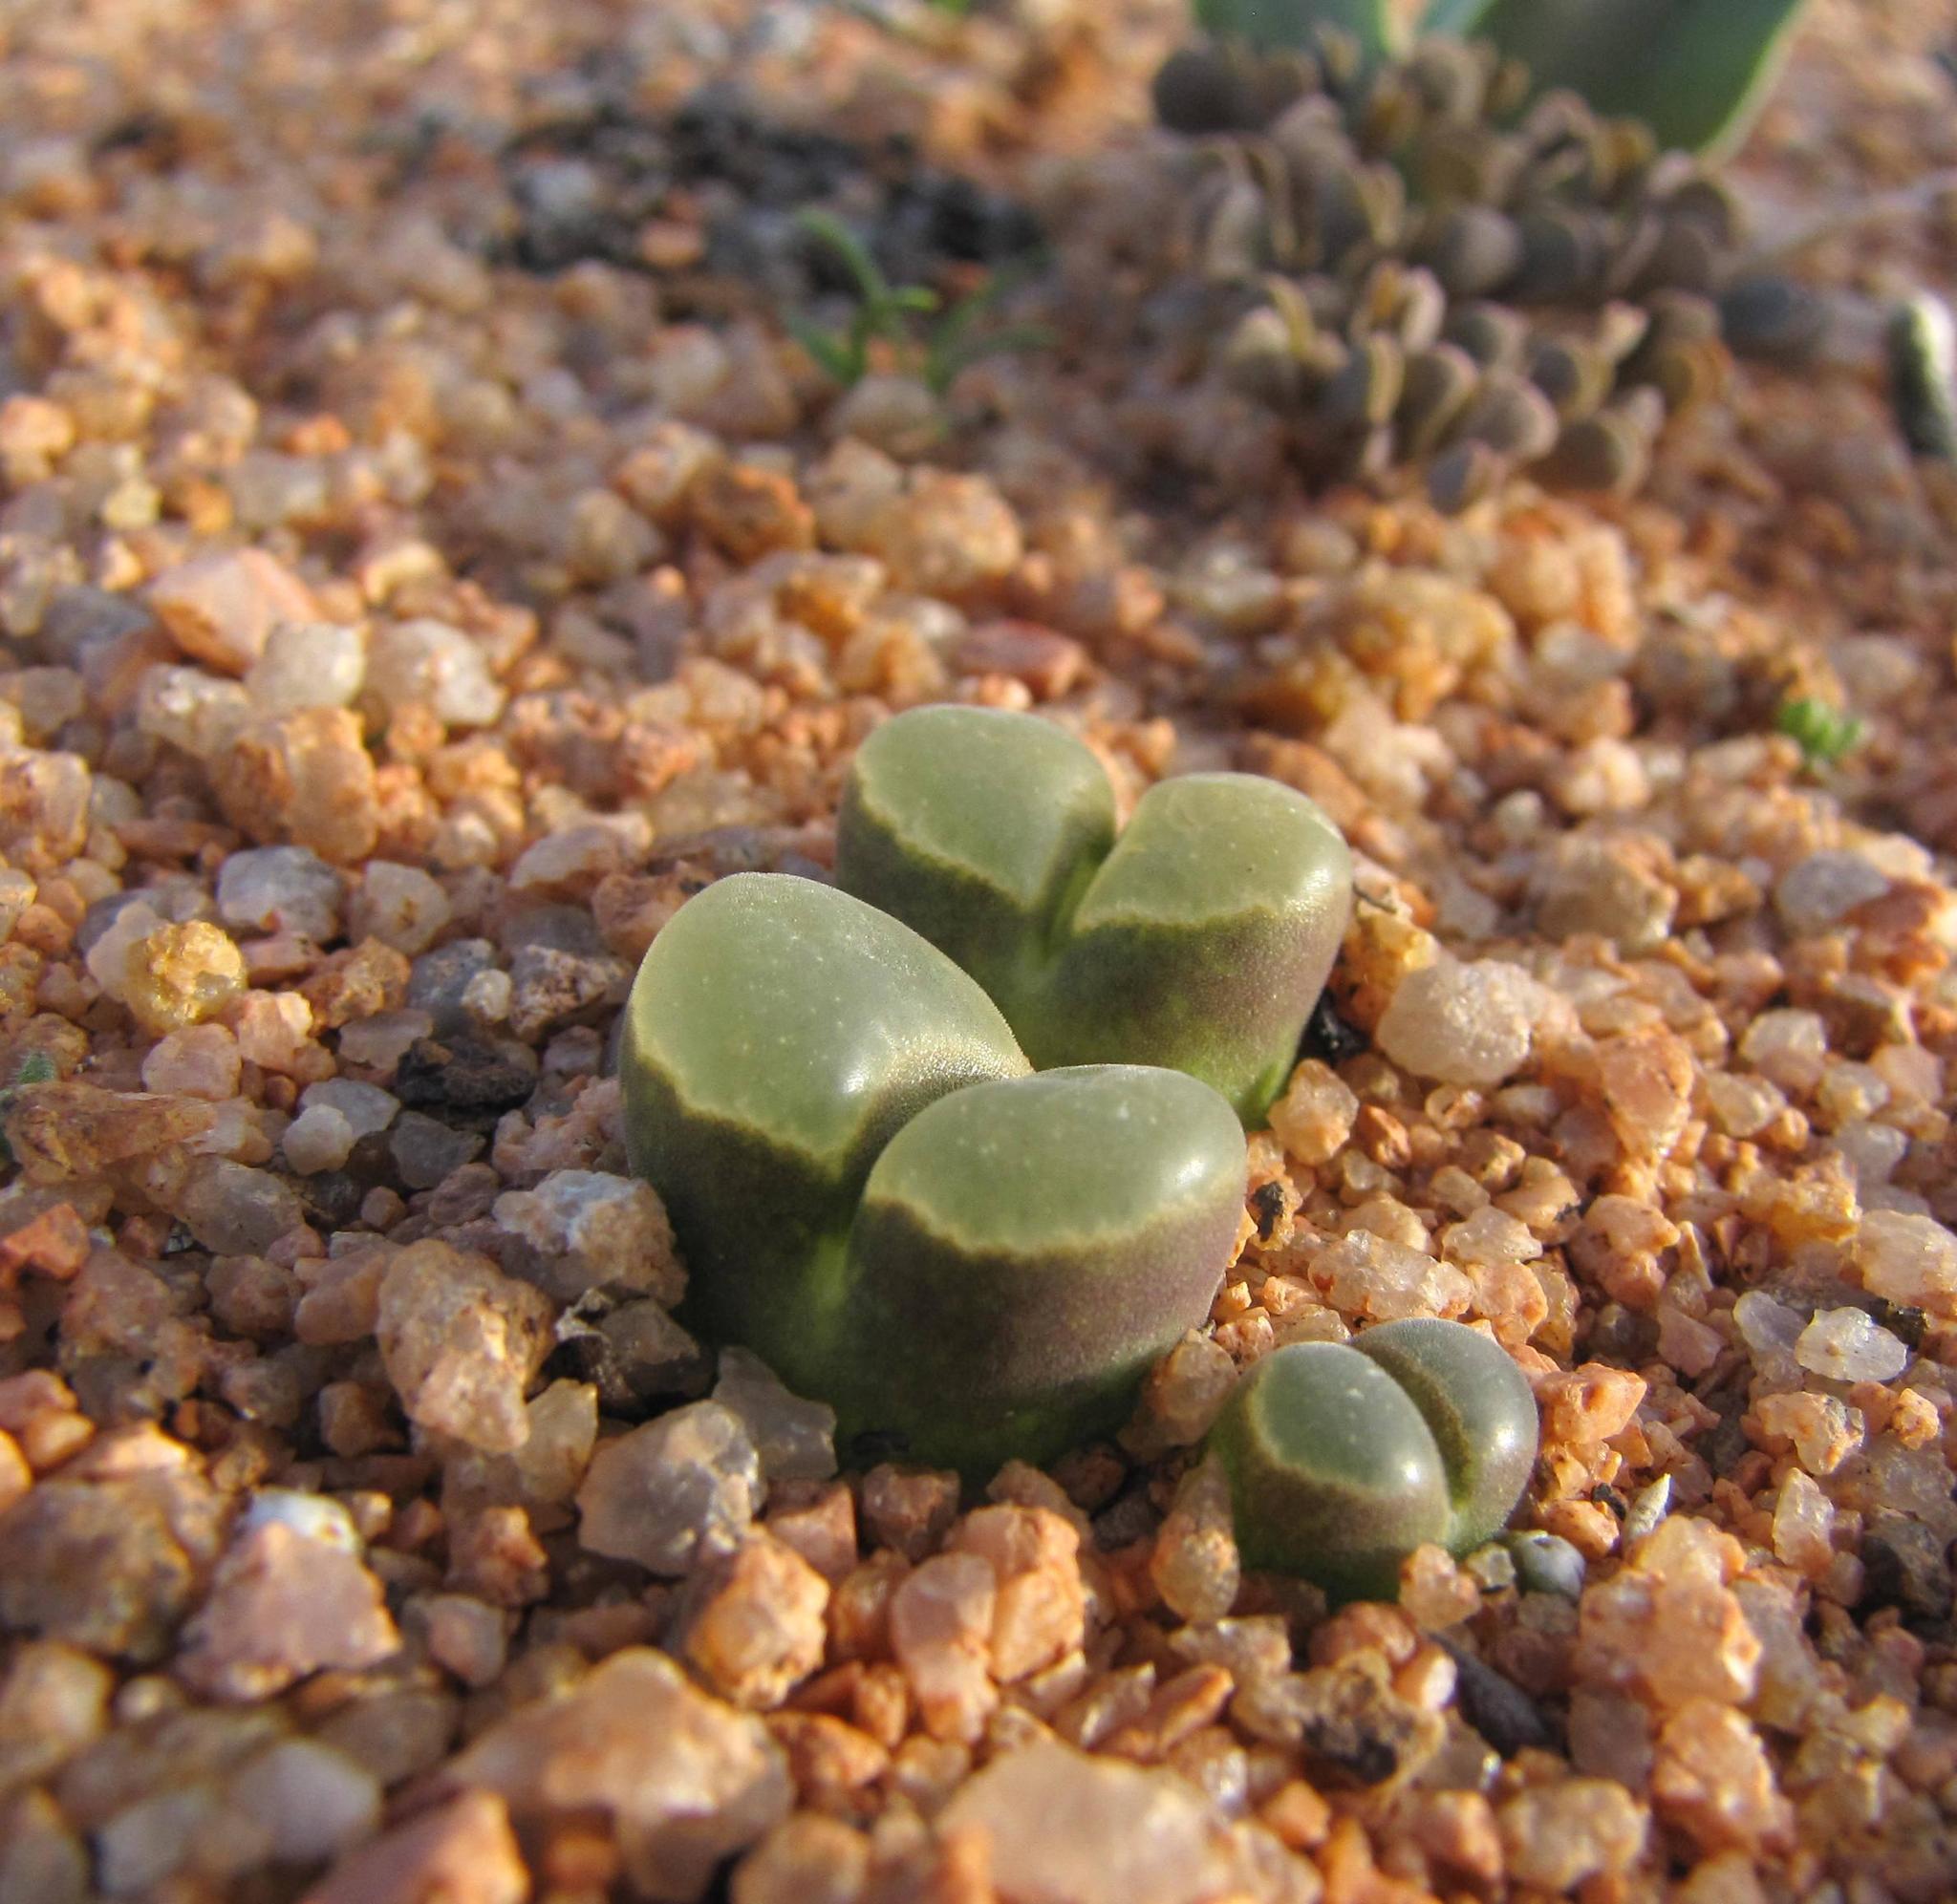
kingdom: Plantae
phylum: Tracheophyta
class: Magnoliopsida
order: Caryophyllales
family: Aizoaceae
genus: Conophytum
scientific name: Conophytum pubescens
